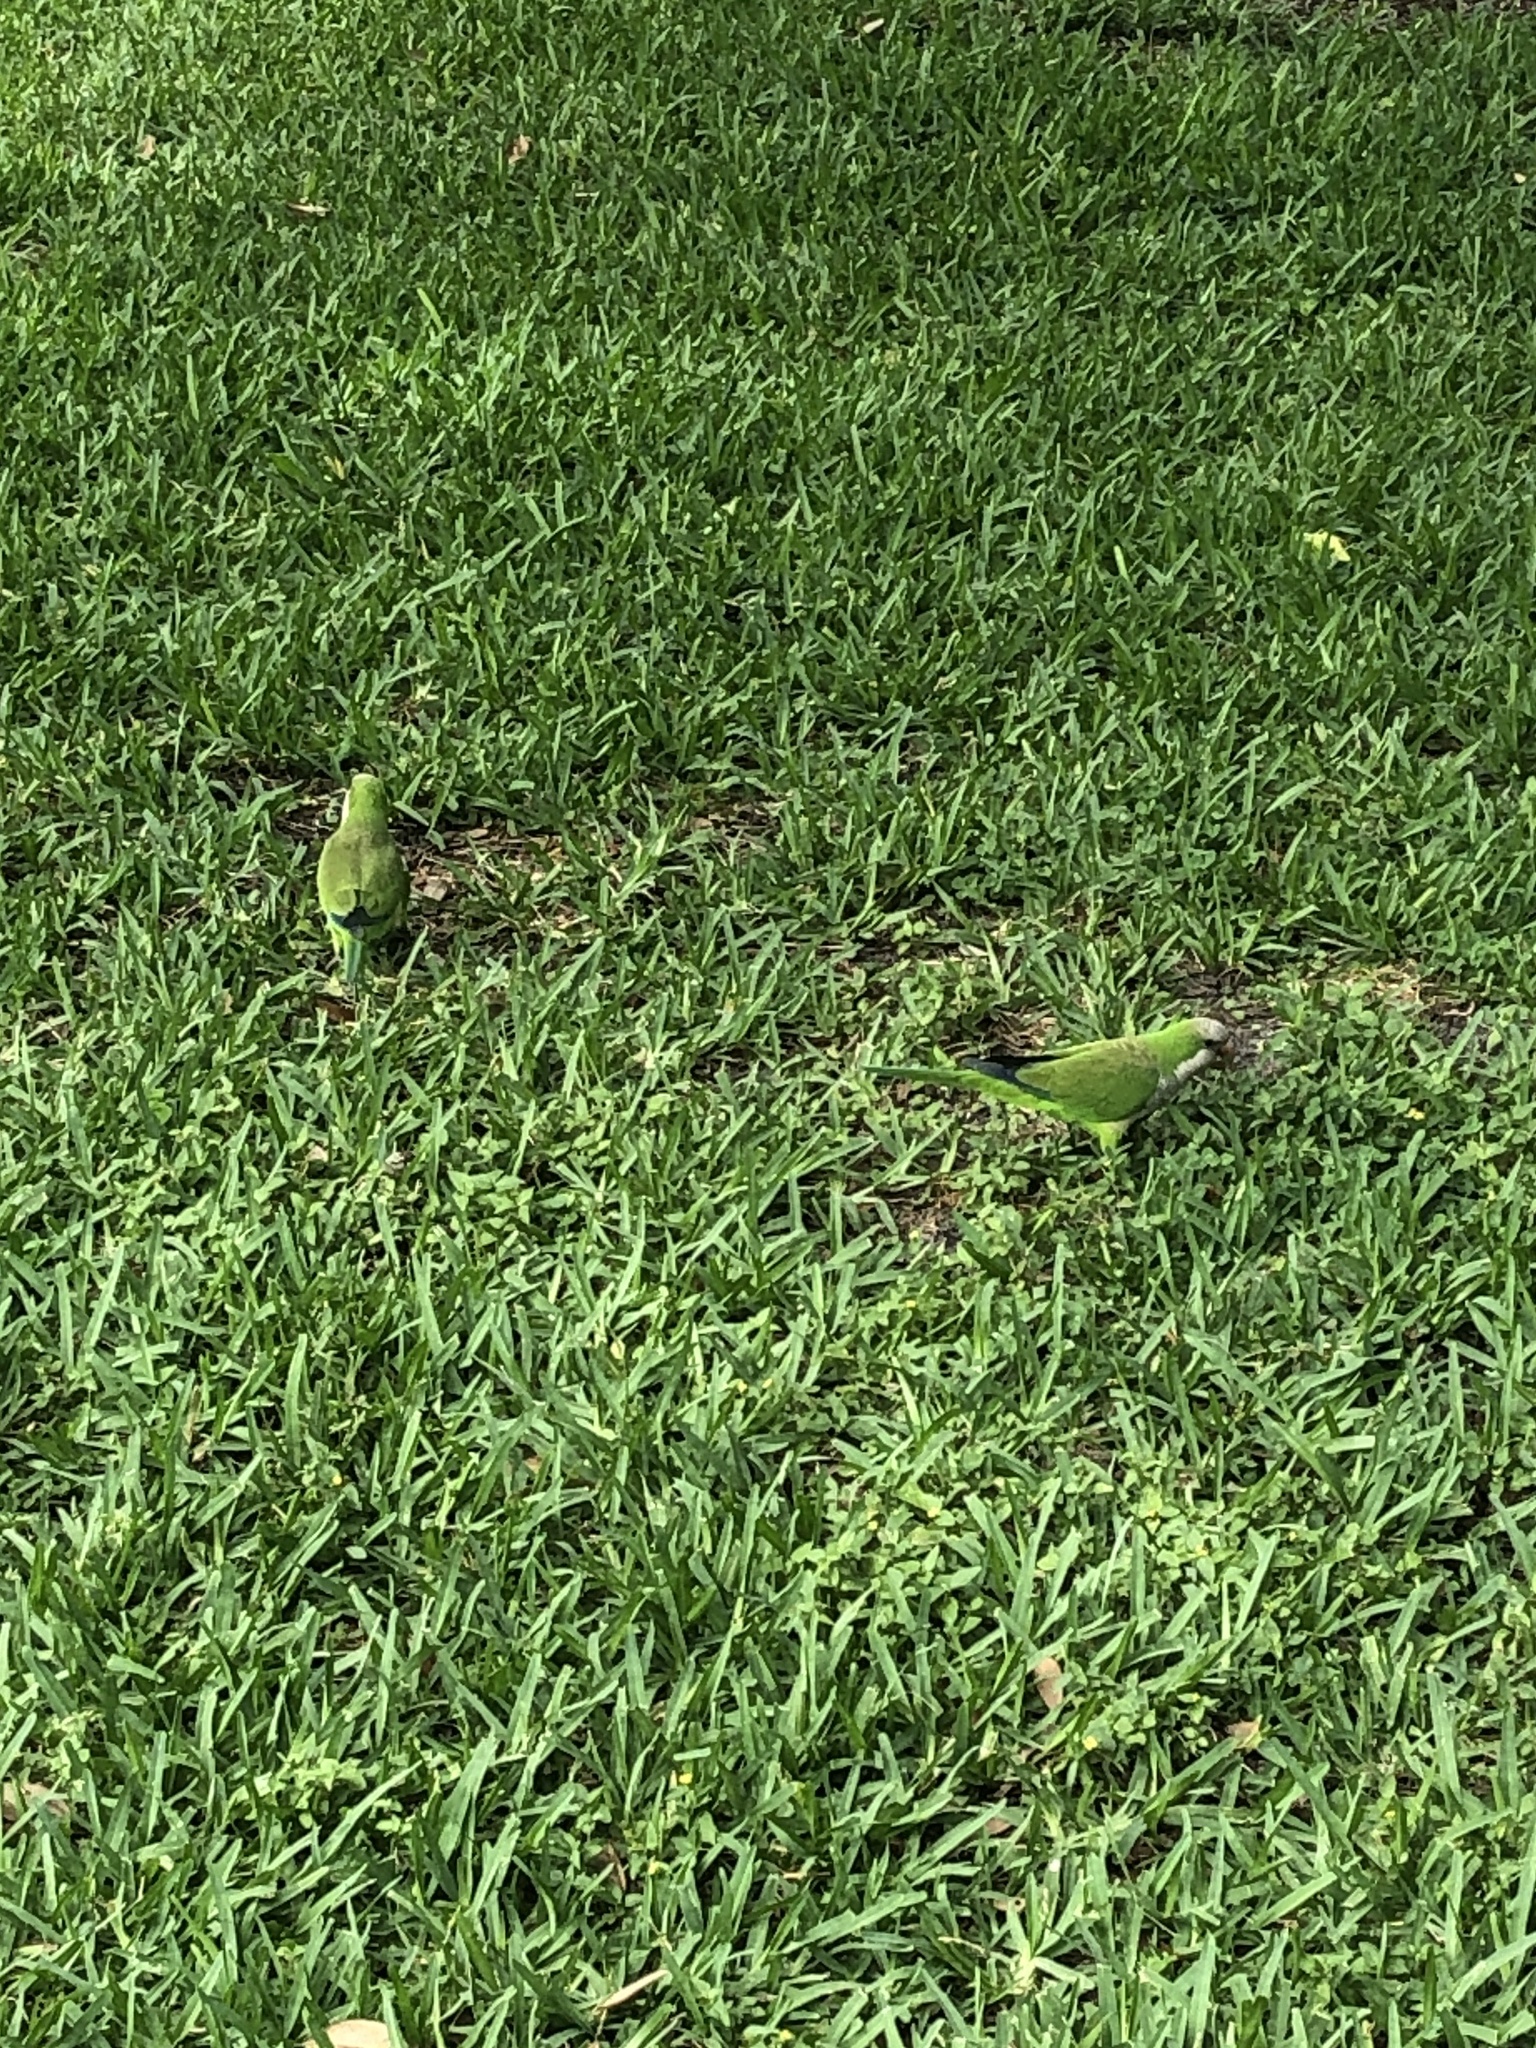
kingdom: Animalia
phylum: Chordata
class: Aves
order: Psittaciformes
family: Psittacidae
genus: Myiopsitta
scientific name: Myiopsitta monachus
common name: Monk parakeet
